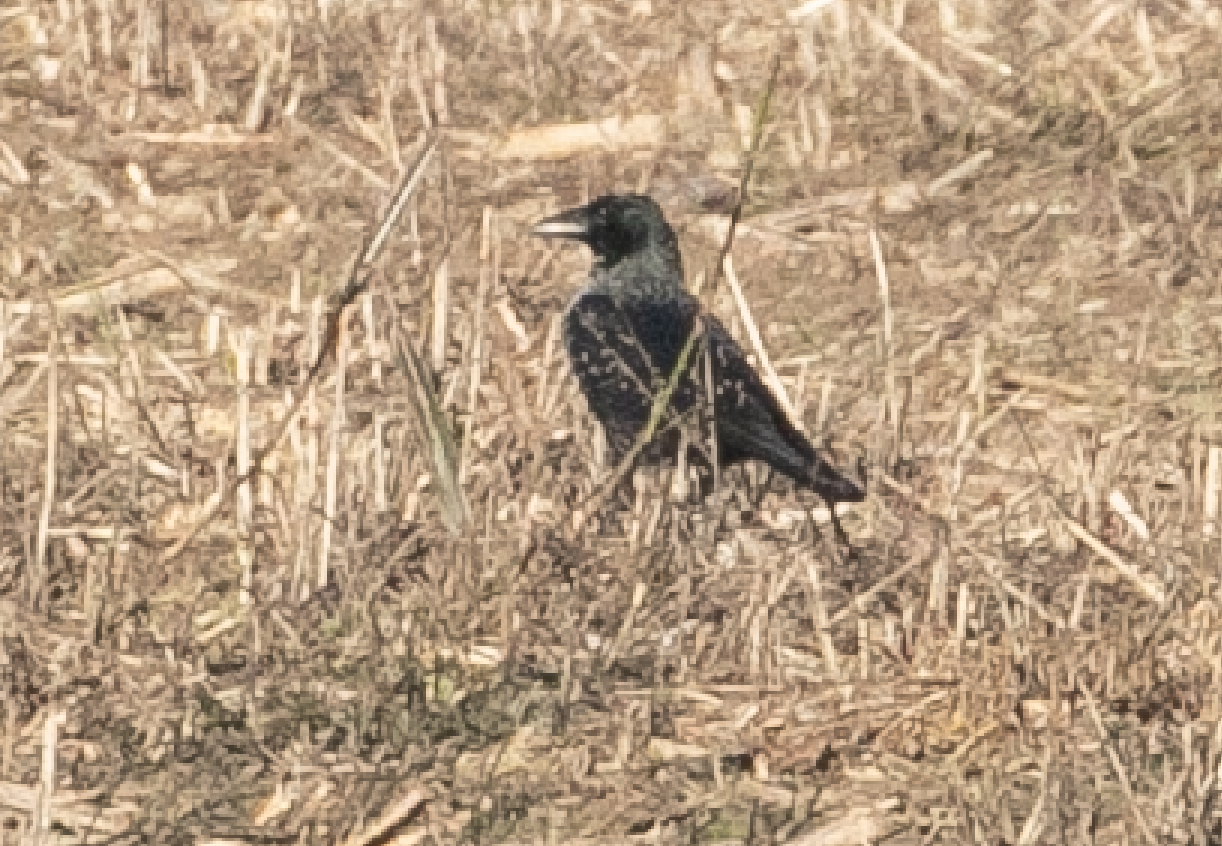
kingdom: Animalia
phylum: Chordata
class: Aves
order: Passeriformes
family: Corvidae
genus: Corvus
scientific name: Corvus
